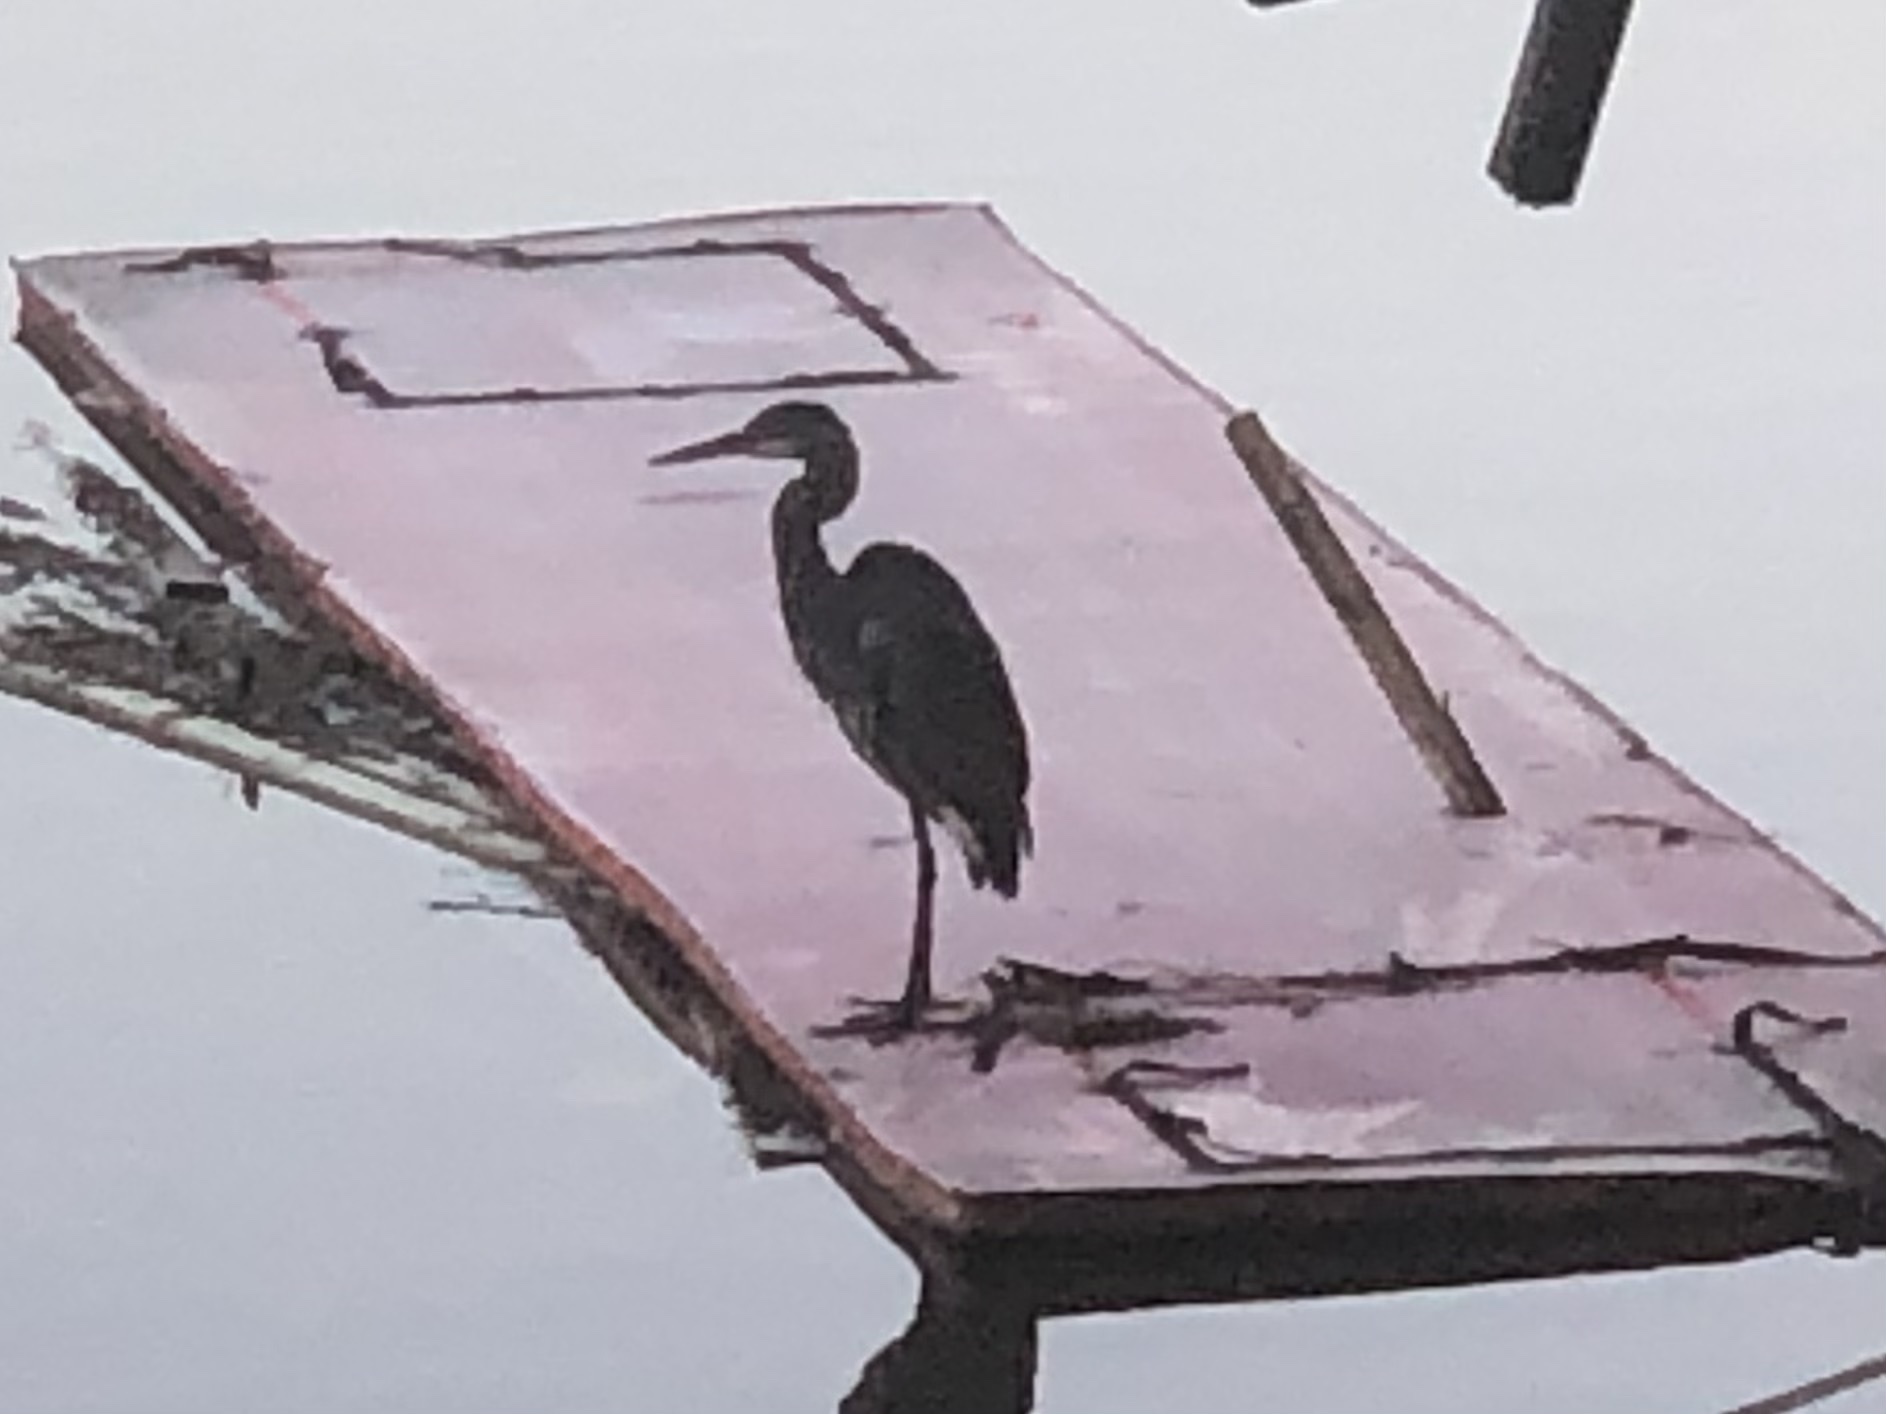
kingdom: Animalia
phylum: Chordata
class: Aves
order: Pelecaniformes
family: Ardeidae
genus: Ardea
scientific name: Ardea herodias
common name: Great blue heron
